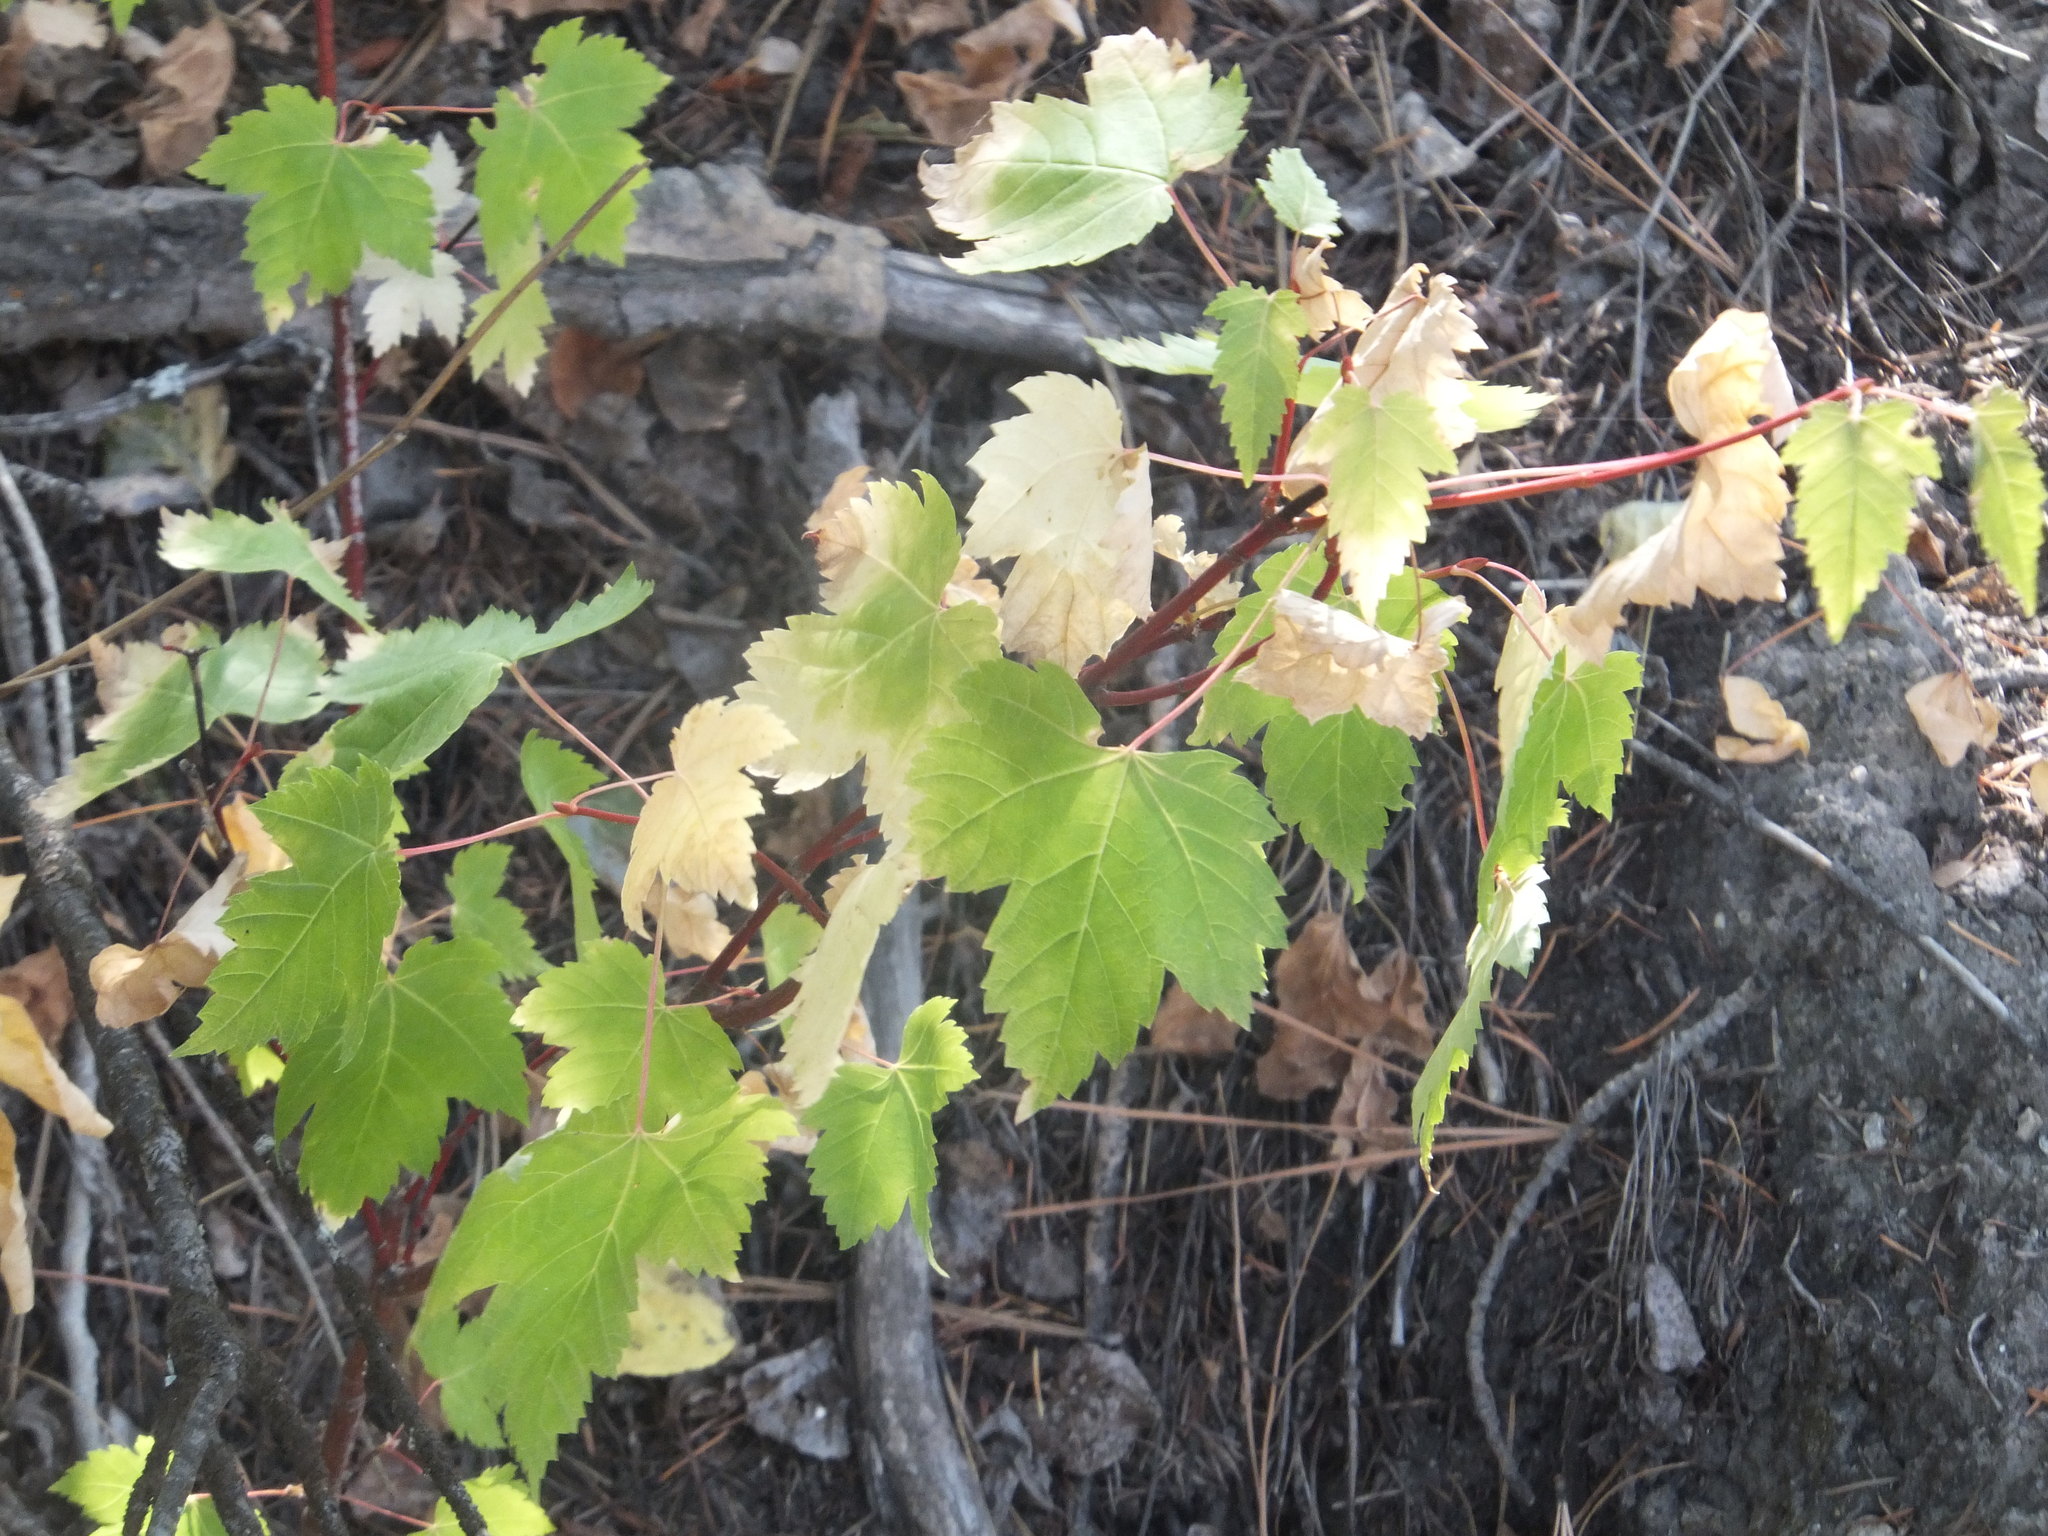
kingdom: Plantae
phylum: Tracheophyta
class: Magnoliopsida
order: Sapindales
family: Sapindaceae
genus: Acer
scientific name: Acer glabrum
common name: Rocky mountain maple
